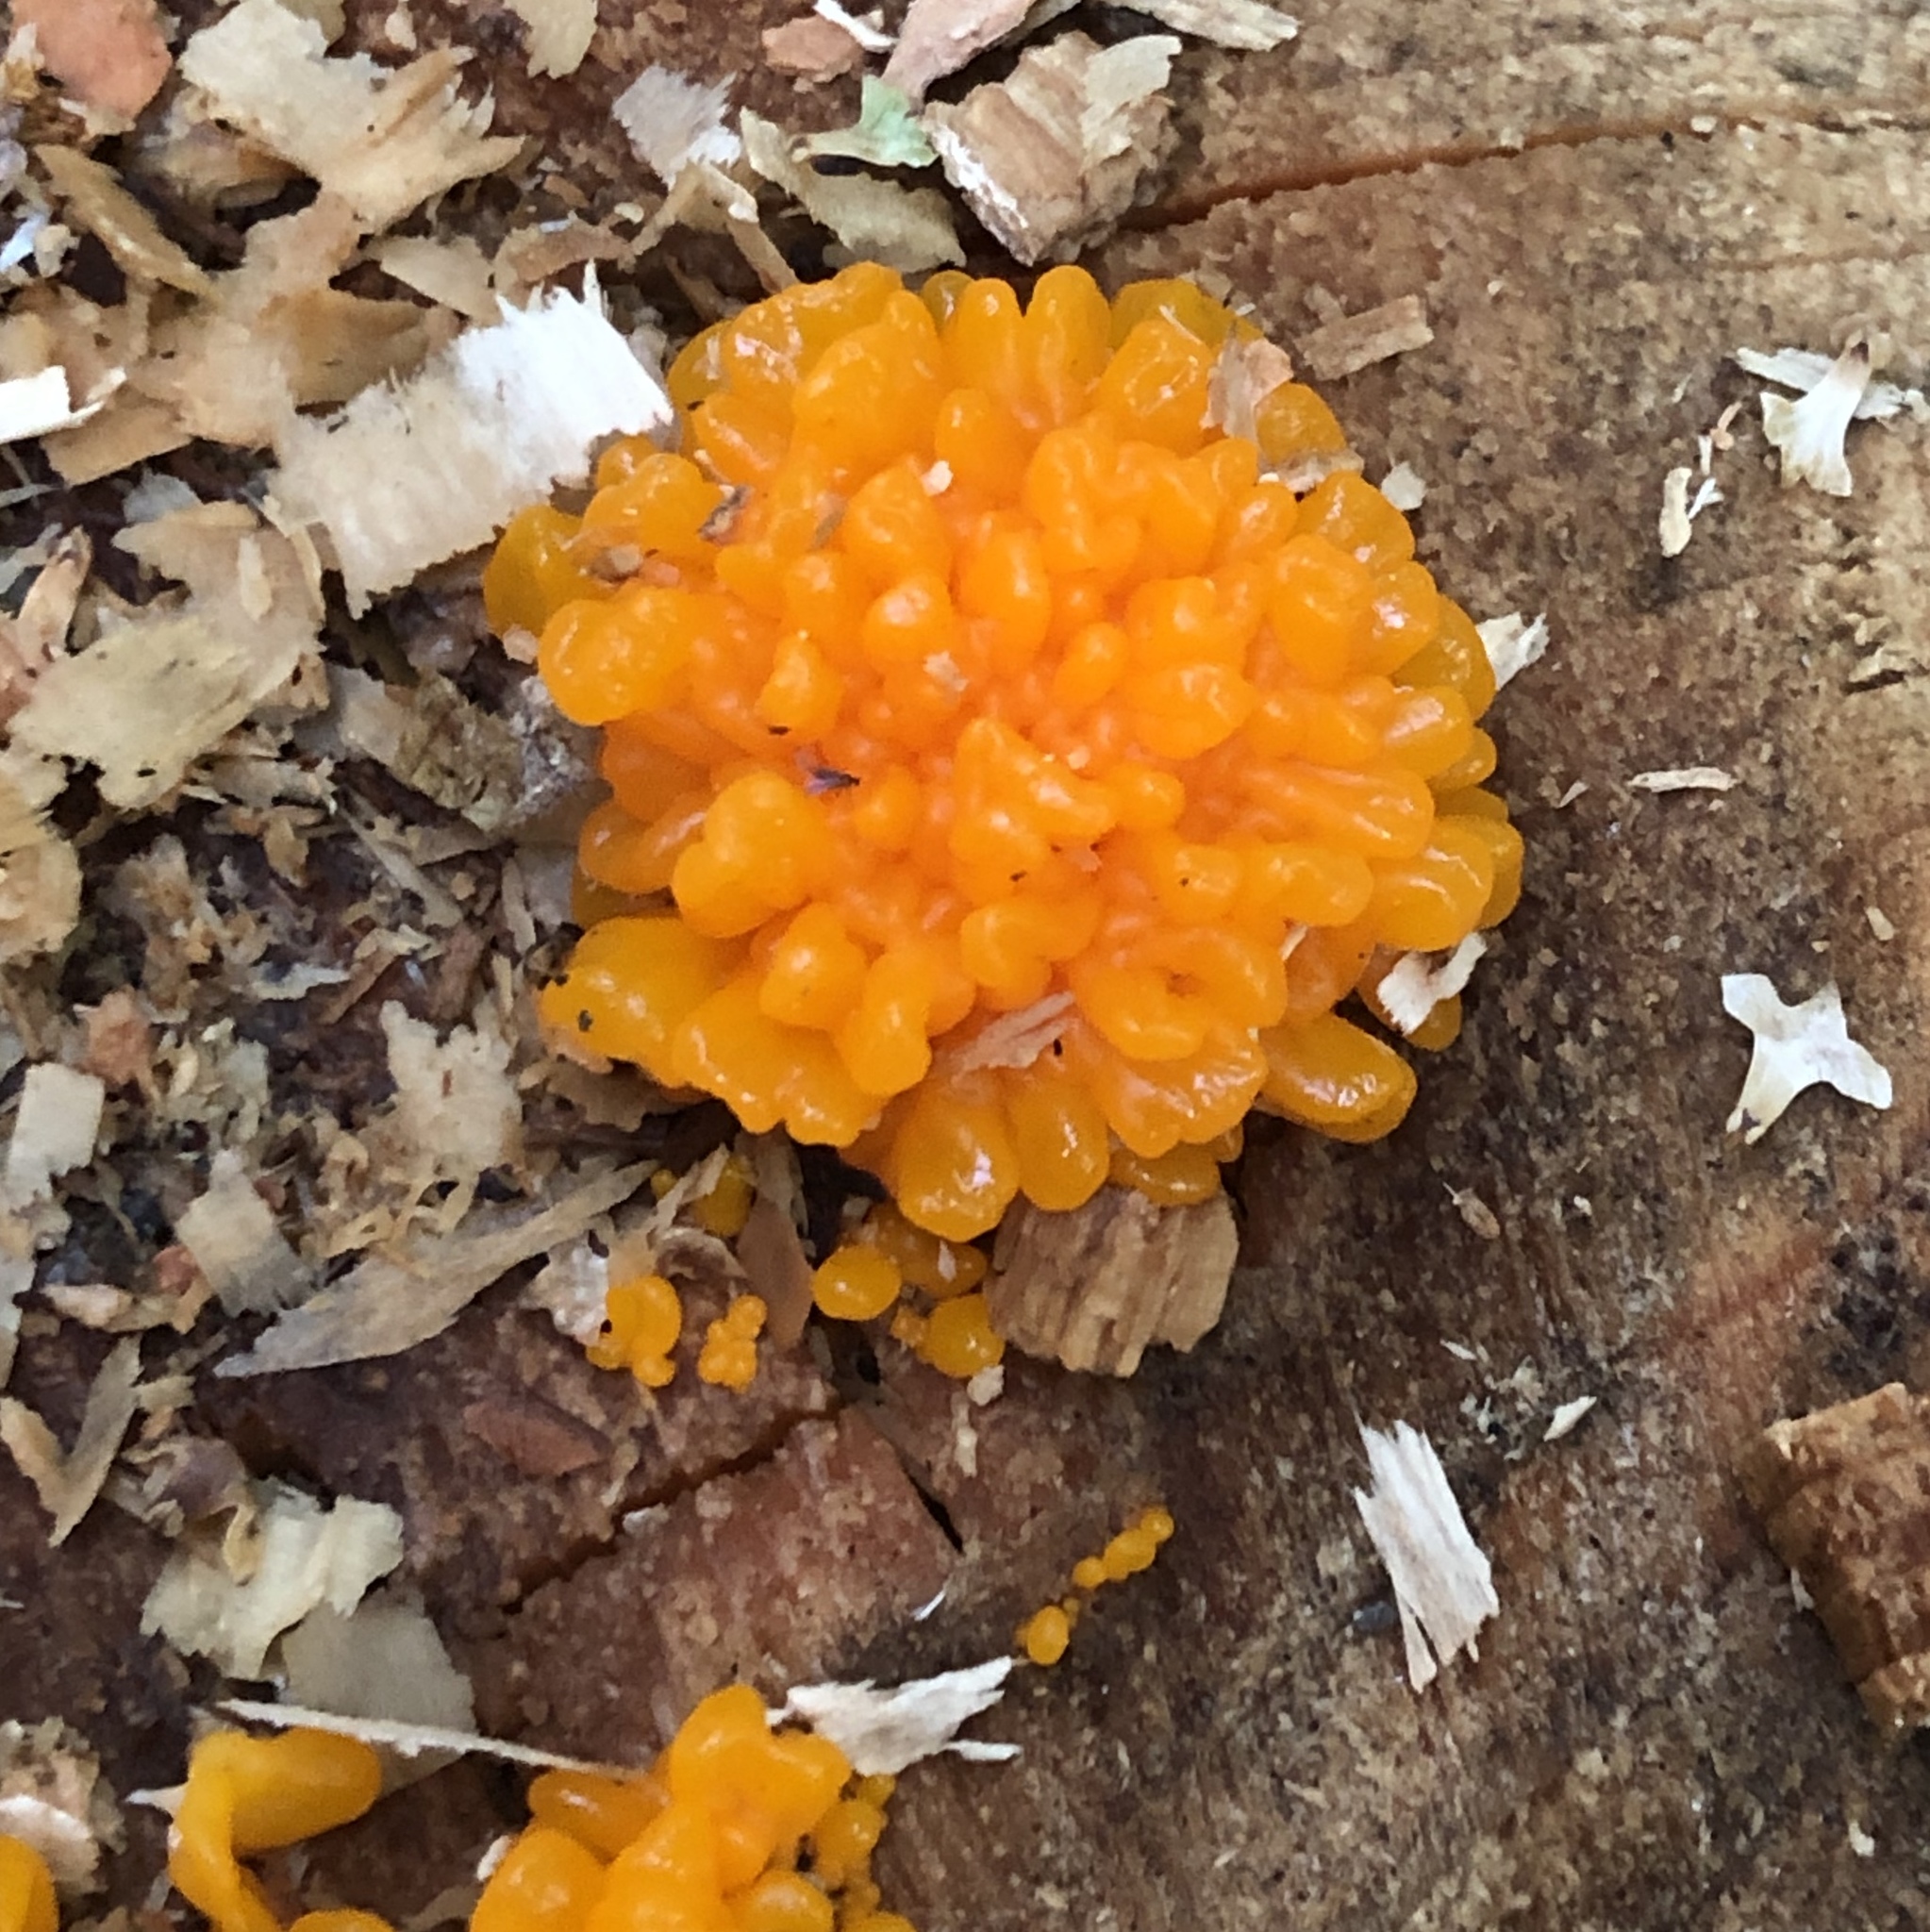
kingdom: Fungi
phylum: Basidiomycota
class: Dacrymycetes
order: Dacrymycetales
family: Dacrymycetaceae
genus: Dacrymyces
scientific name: Dacrymyces chrysospermus
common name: Orange jelly spot
